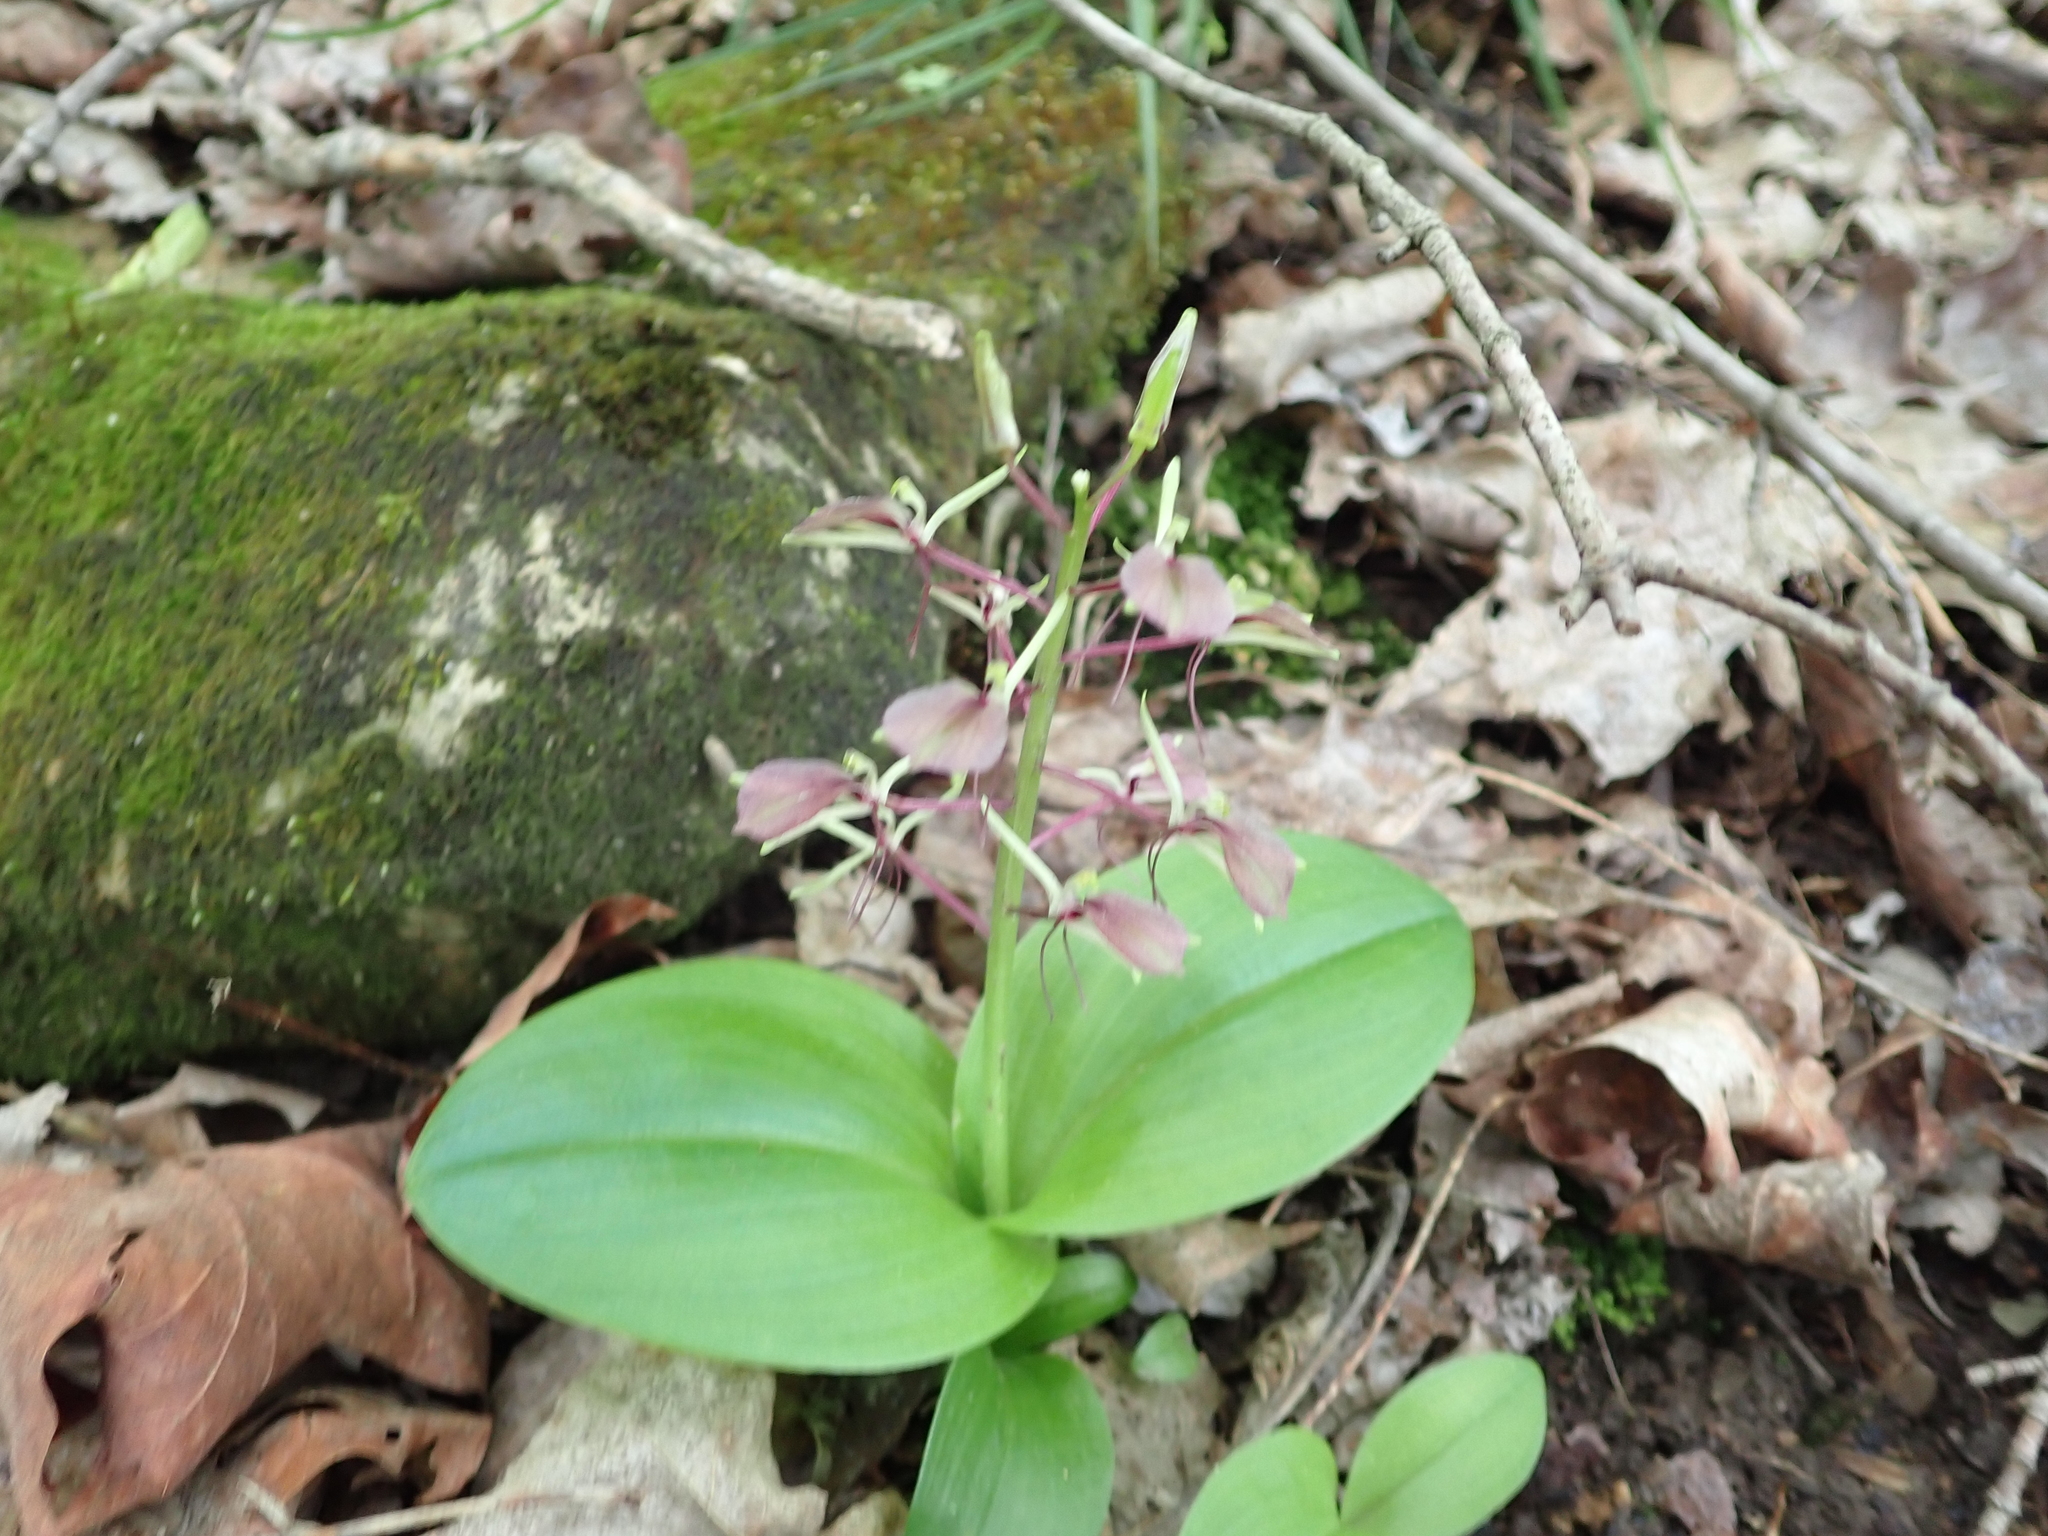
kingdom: Plantae
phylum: Tracheophyta
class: Liliopsida
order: Asparagales
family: Orchidaceae
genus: Liparis
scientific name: Liparis liliifolia
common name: Brown wide-lip orchid
